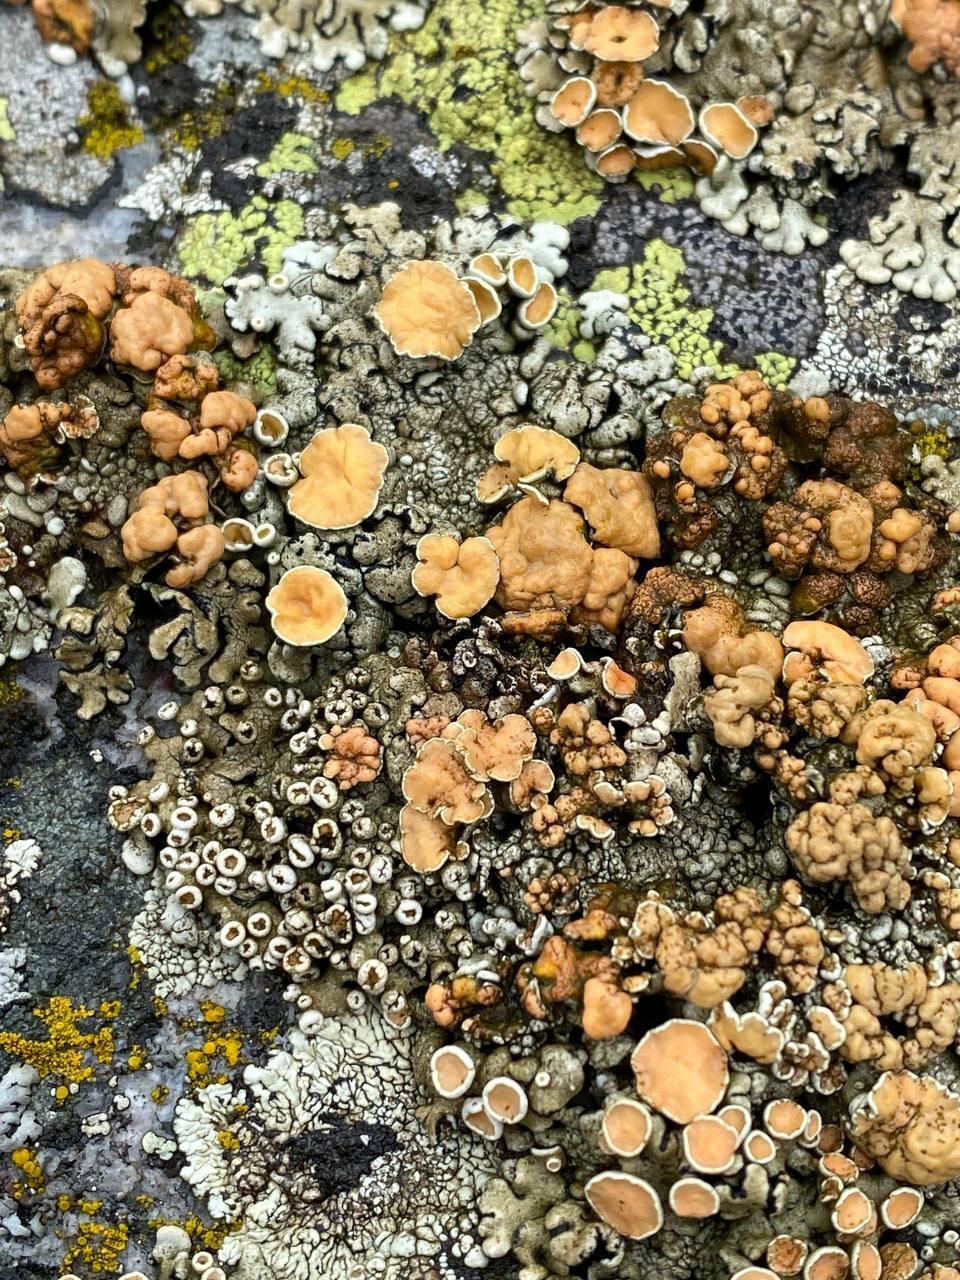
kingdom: Fungi
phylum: Ascomycota
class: Lecanoromycetes
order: Lecanorales
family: Lecanoraceae
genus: Omphalodina
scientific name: Omphalodina chrysoleuca
